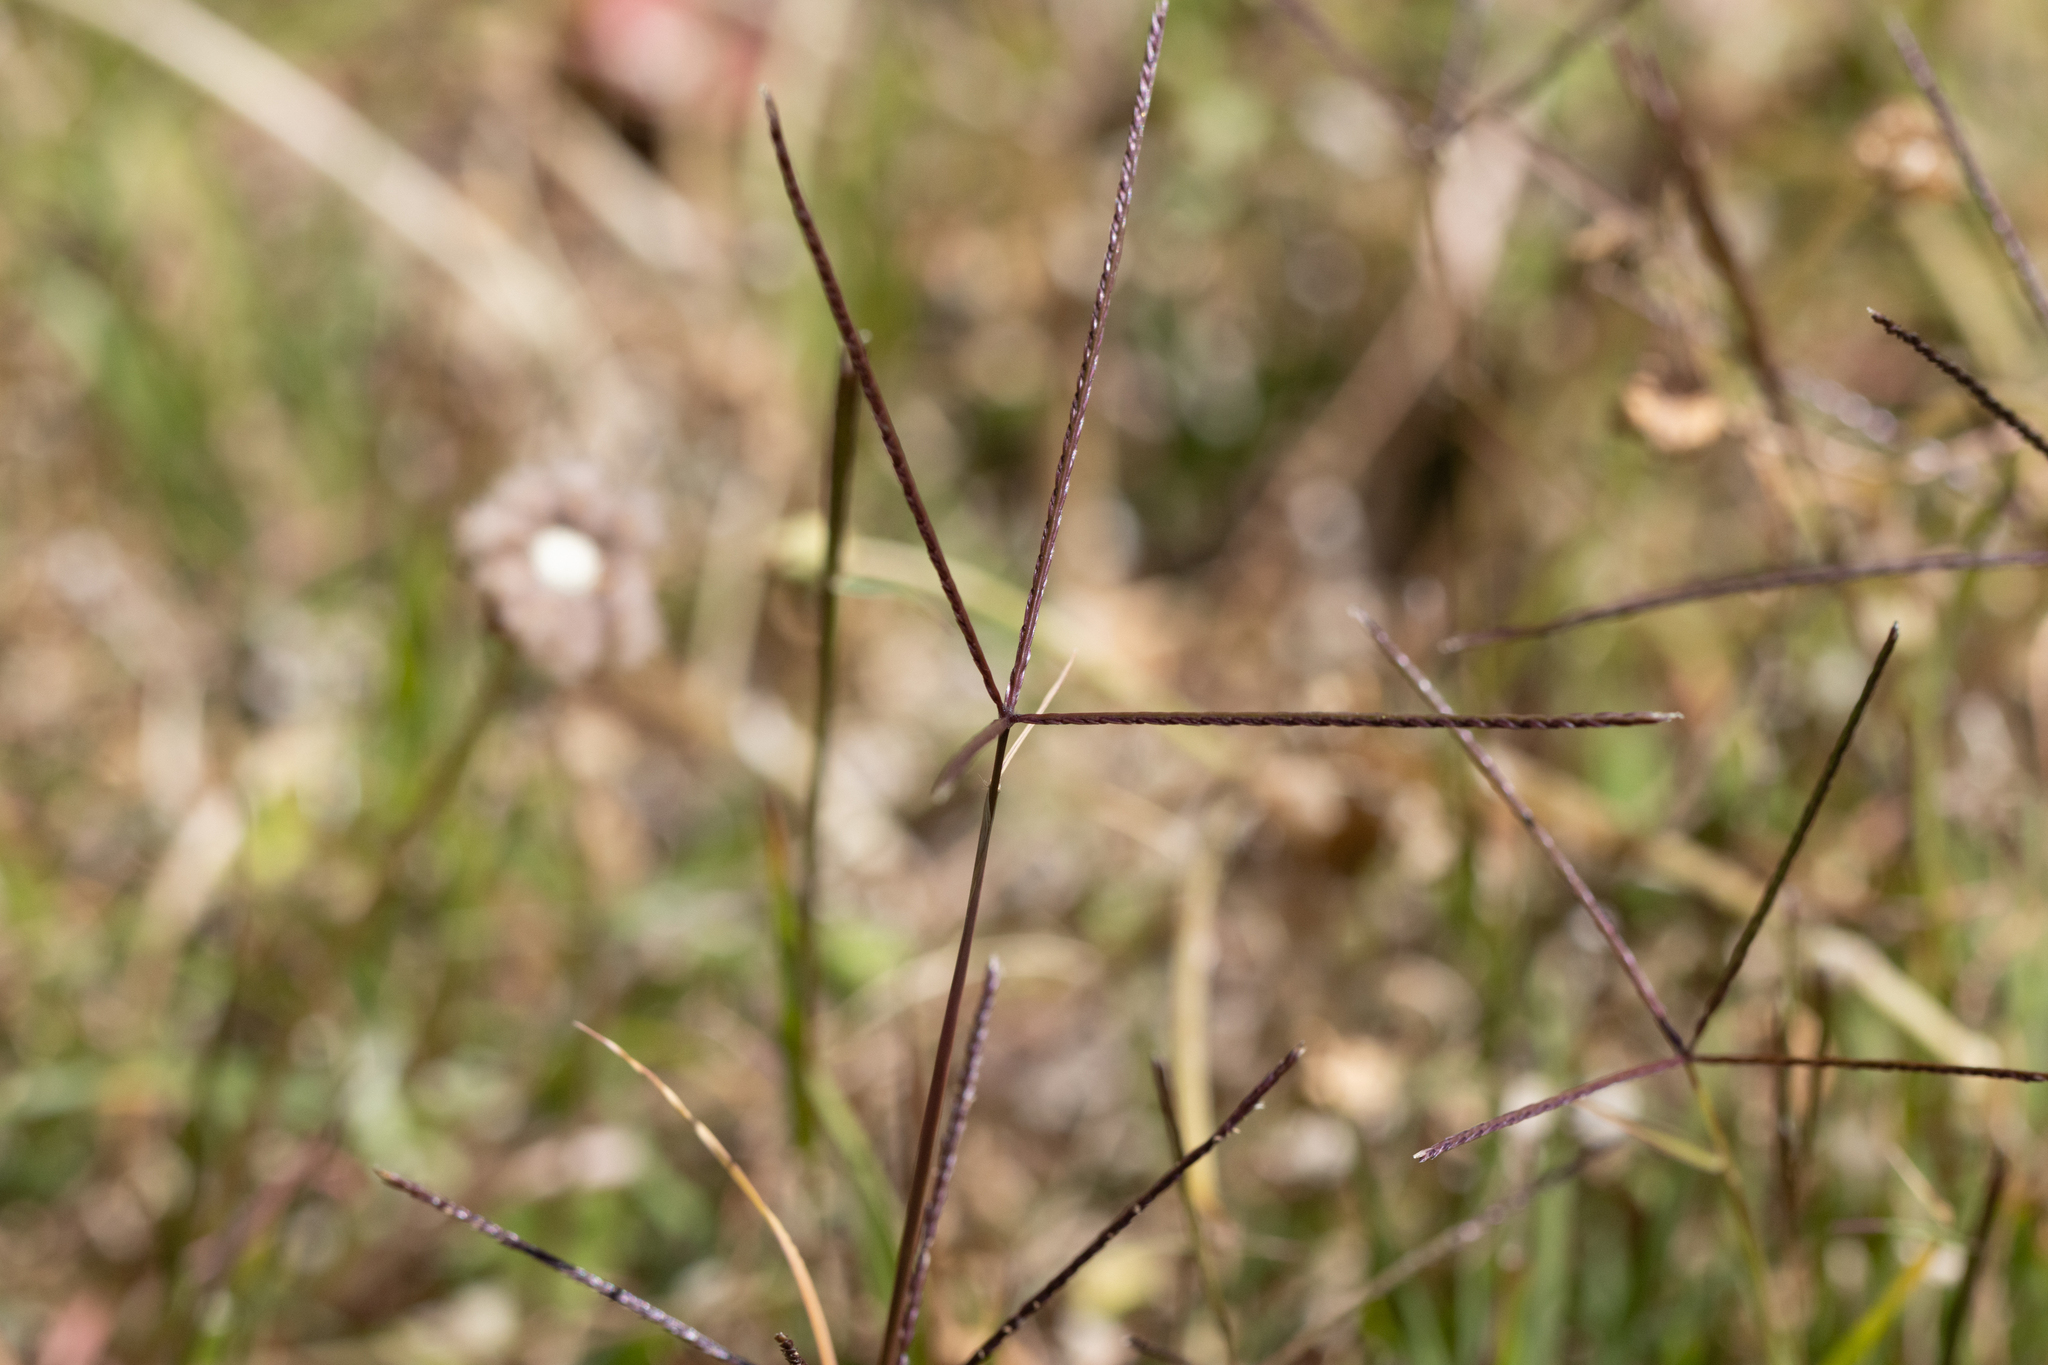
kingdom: Plantae
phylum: Tracheophyta
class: Liliopsida
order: Poales
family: Poaceae
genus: Cynodon
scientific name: Cynodon dactylon
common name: Bermuda grass
